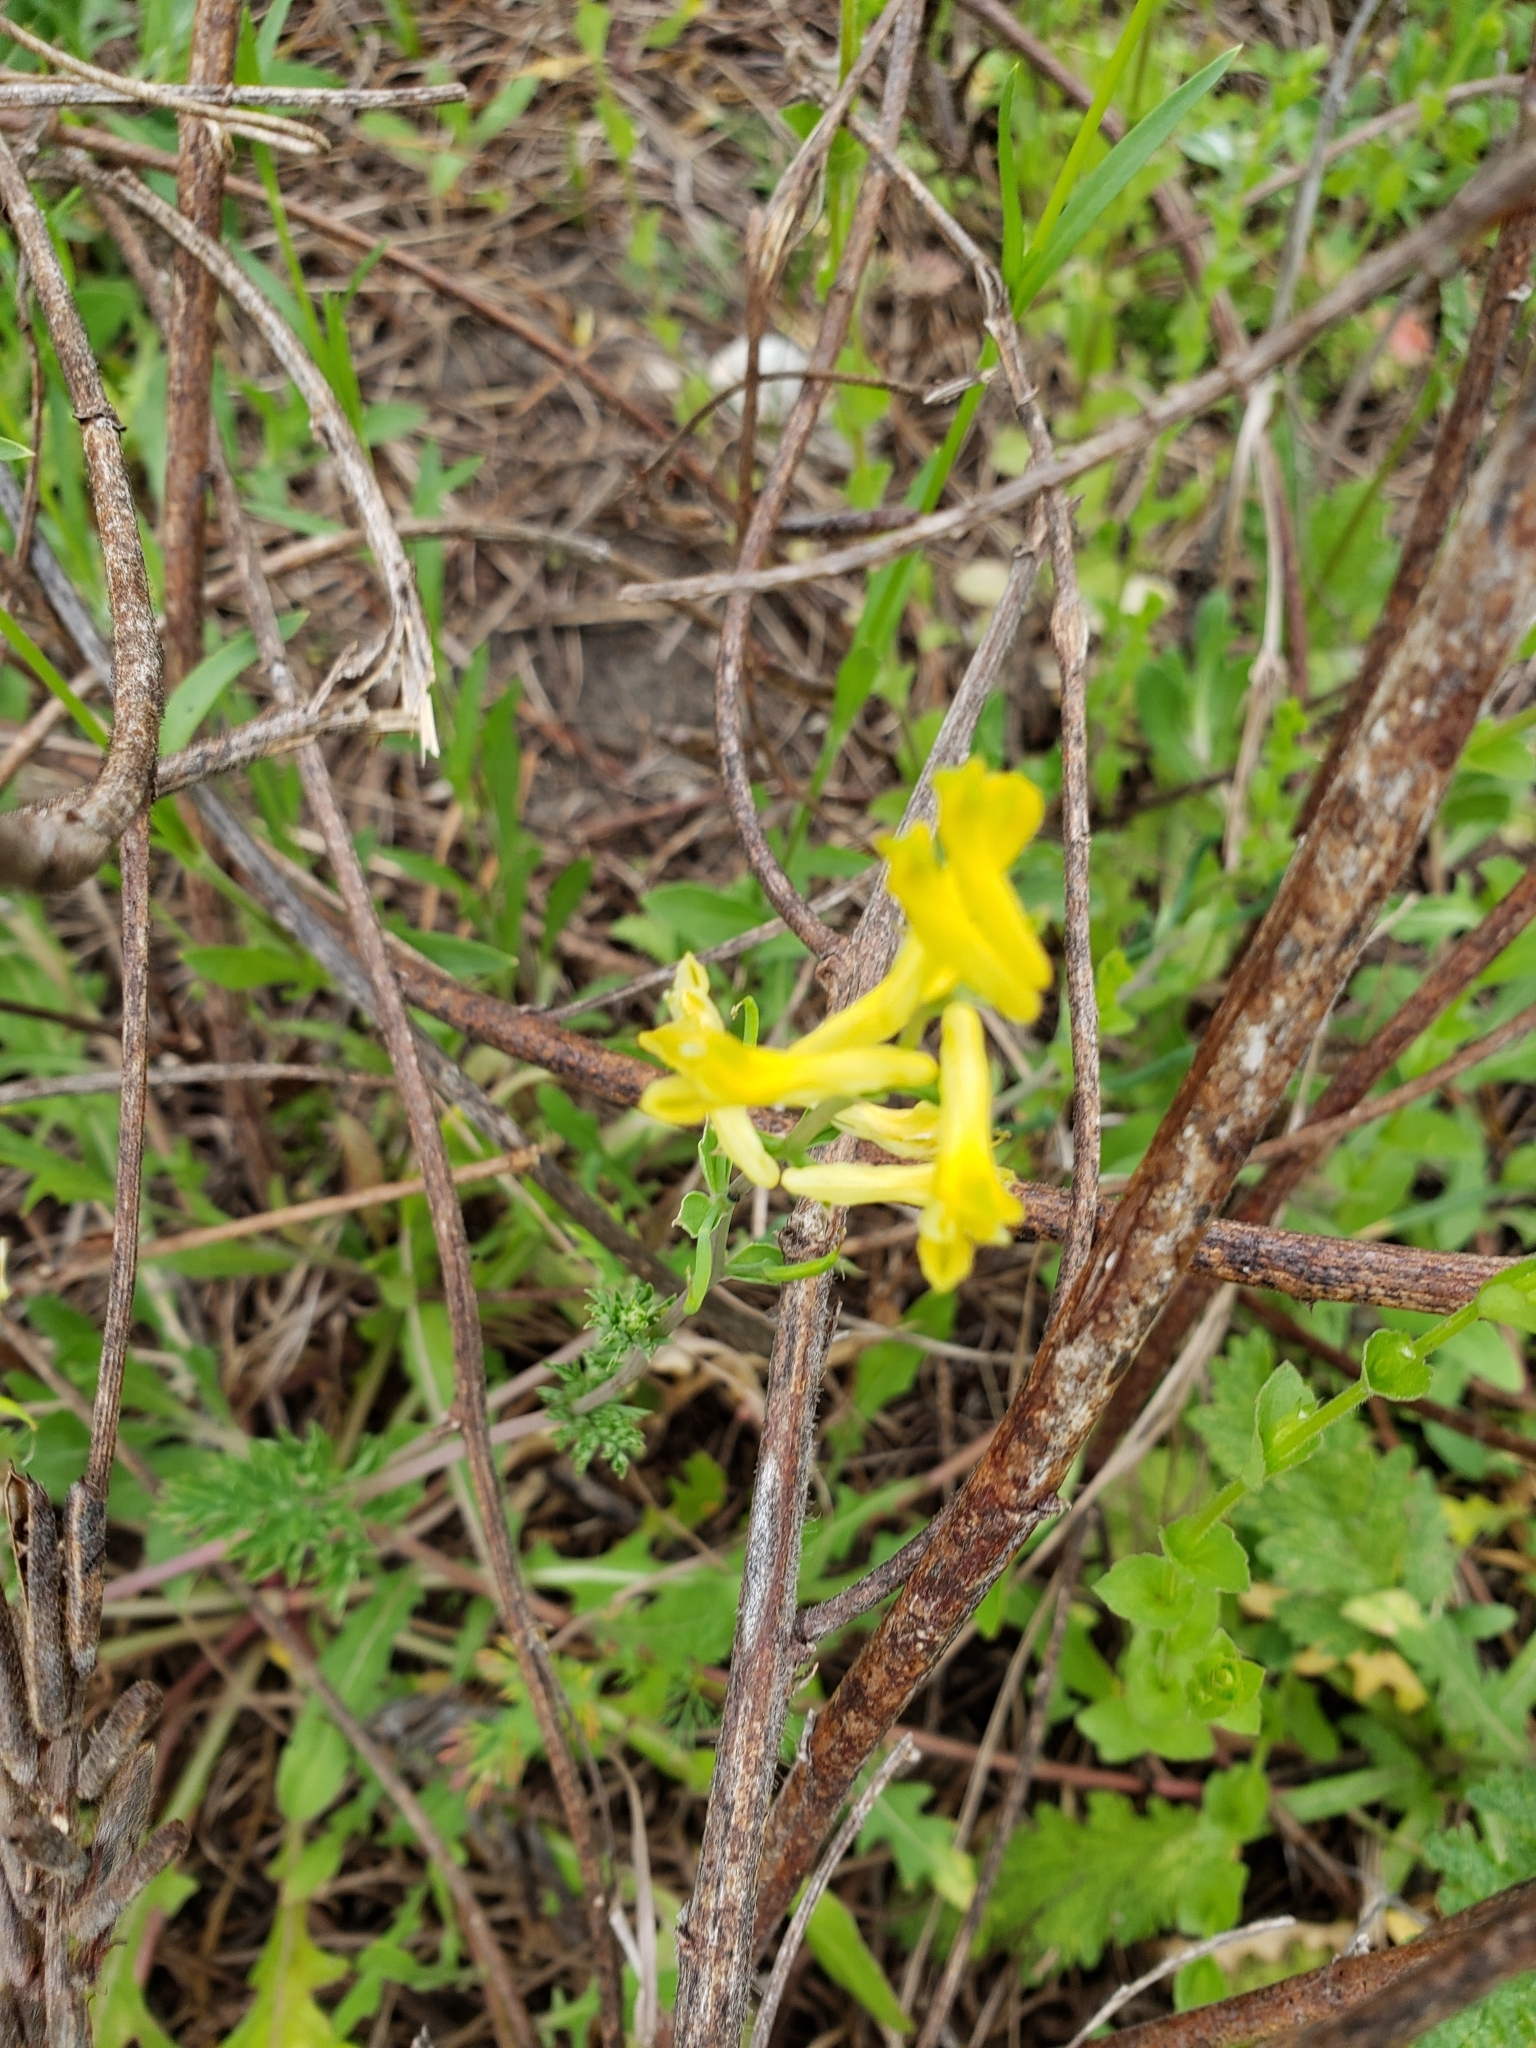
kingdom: Plantae
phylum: Tracheophyta
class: Magnoliopsida
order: Ranunculales
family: Papaveraceae
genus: Corydalis
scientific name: Corydalis micrantha
